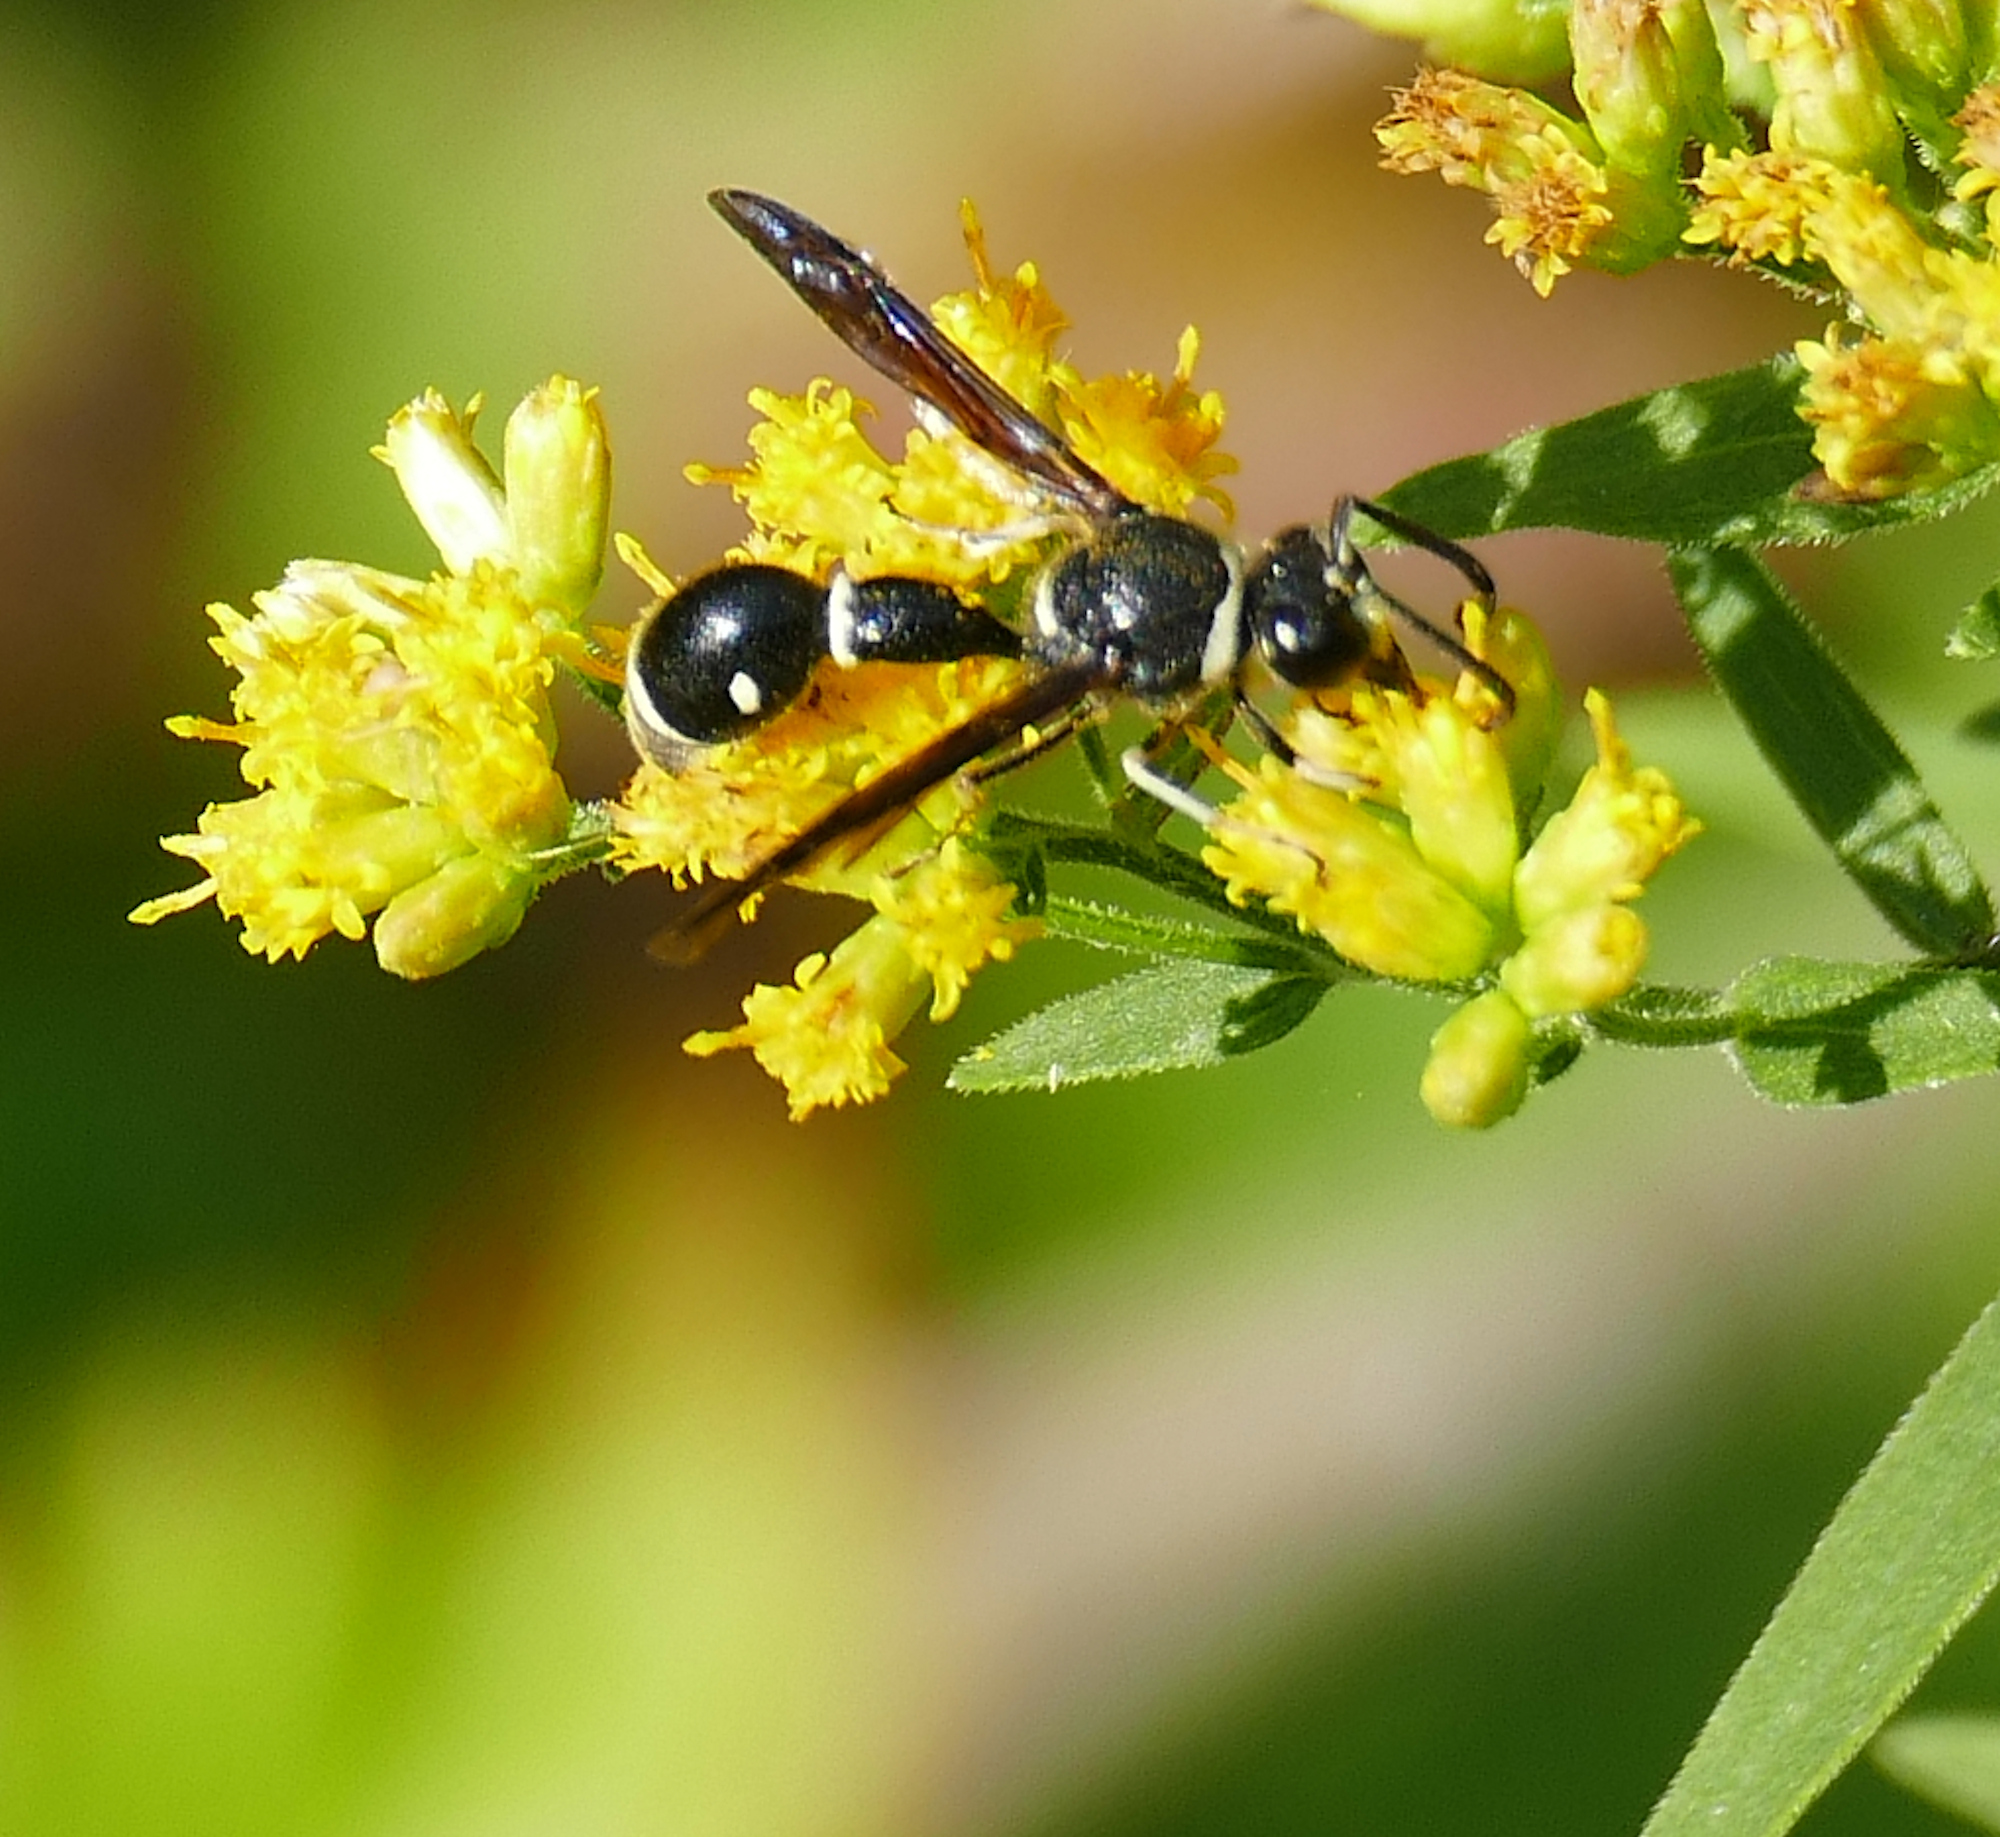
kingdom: Animalia
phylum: Arthropoda
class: Insecta
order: Hymenoptera
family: Vespidae
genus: Eumenes
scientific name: Eumenes fraternus
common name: Fraternal potter wasp
